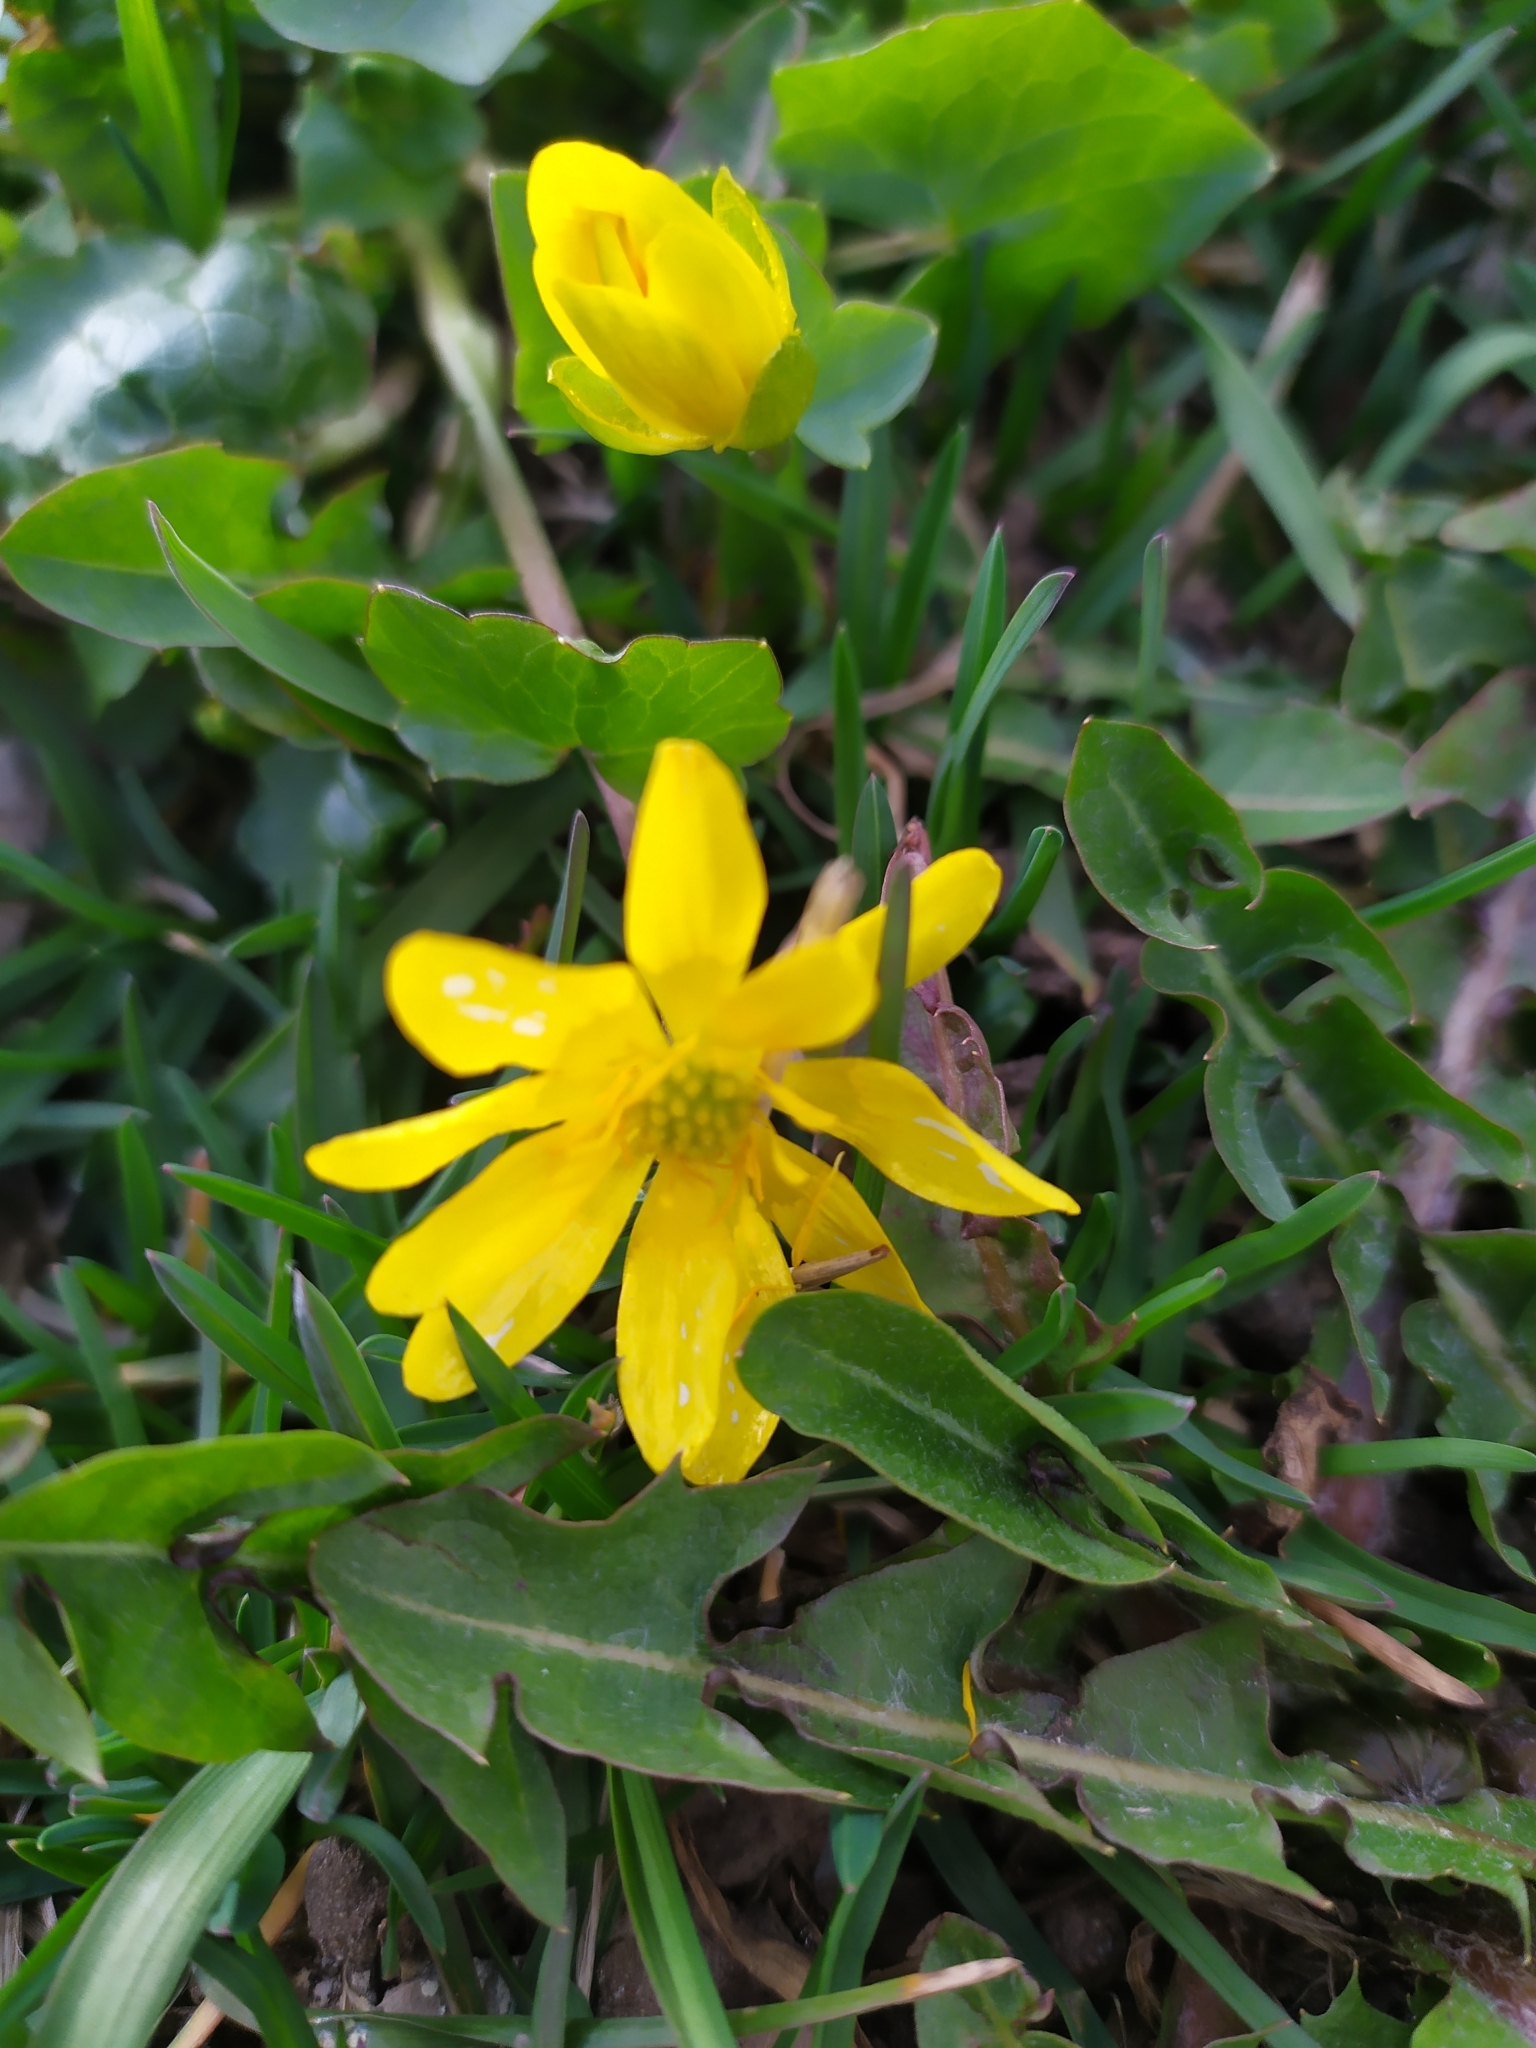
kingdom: Plantae
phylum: Tracheophyta
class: Magnoliopsida
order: Ranunculales
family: Ranunculaceae
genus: Ficaria
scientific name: Ficaria verna
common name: Lesser celandine
